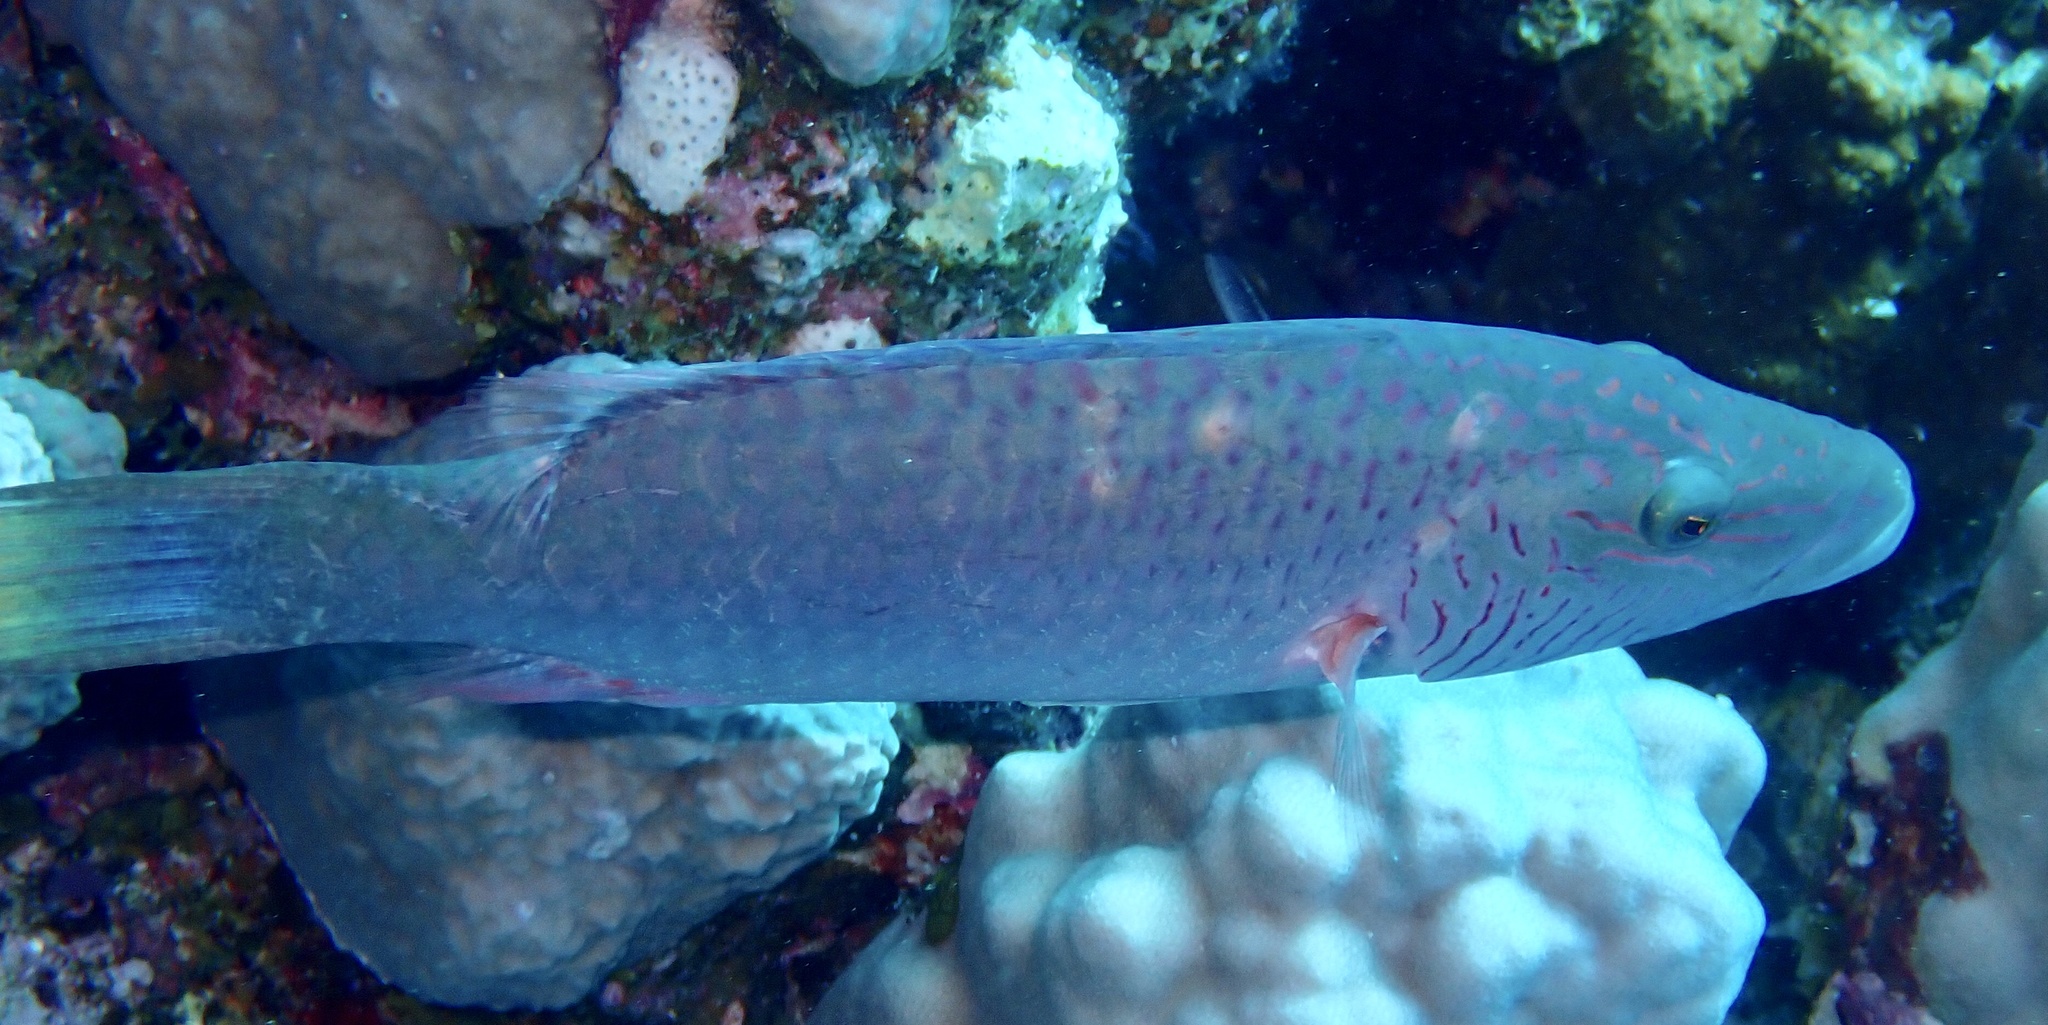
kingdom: Animalia
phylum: Chordata
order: Perciformes
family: Labridae
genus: Oxycheilinus
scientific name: Oxycheilinus digramma
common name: Bandcheek wrasse
